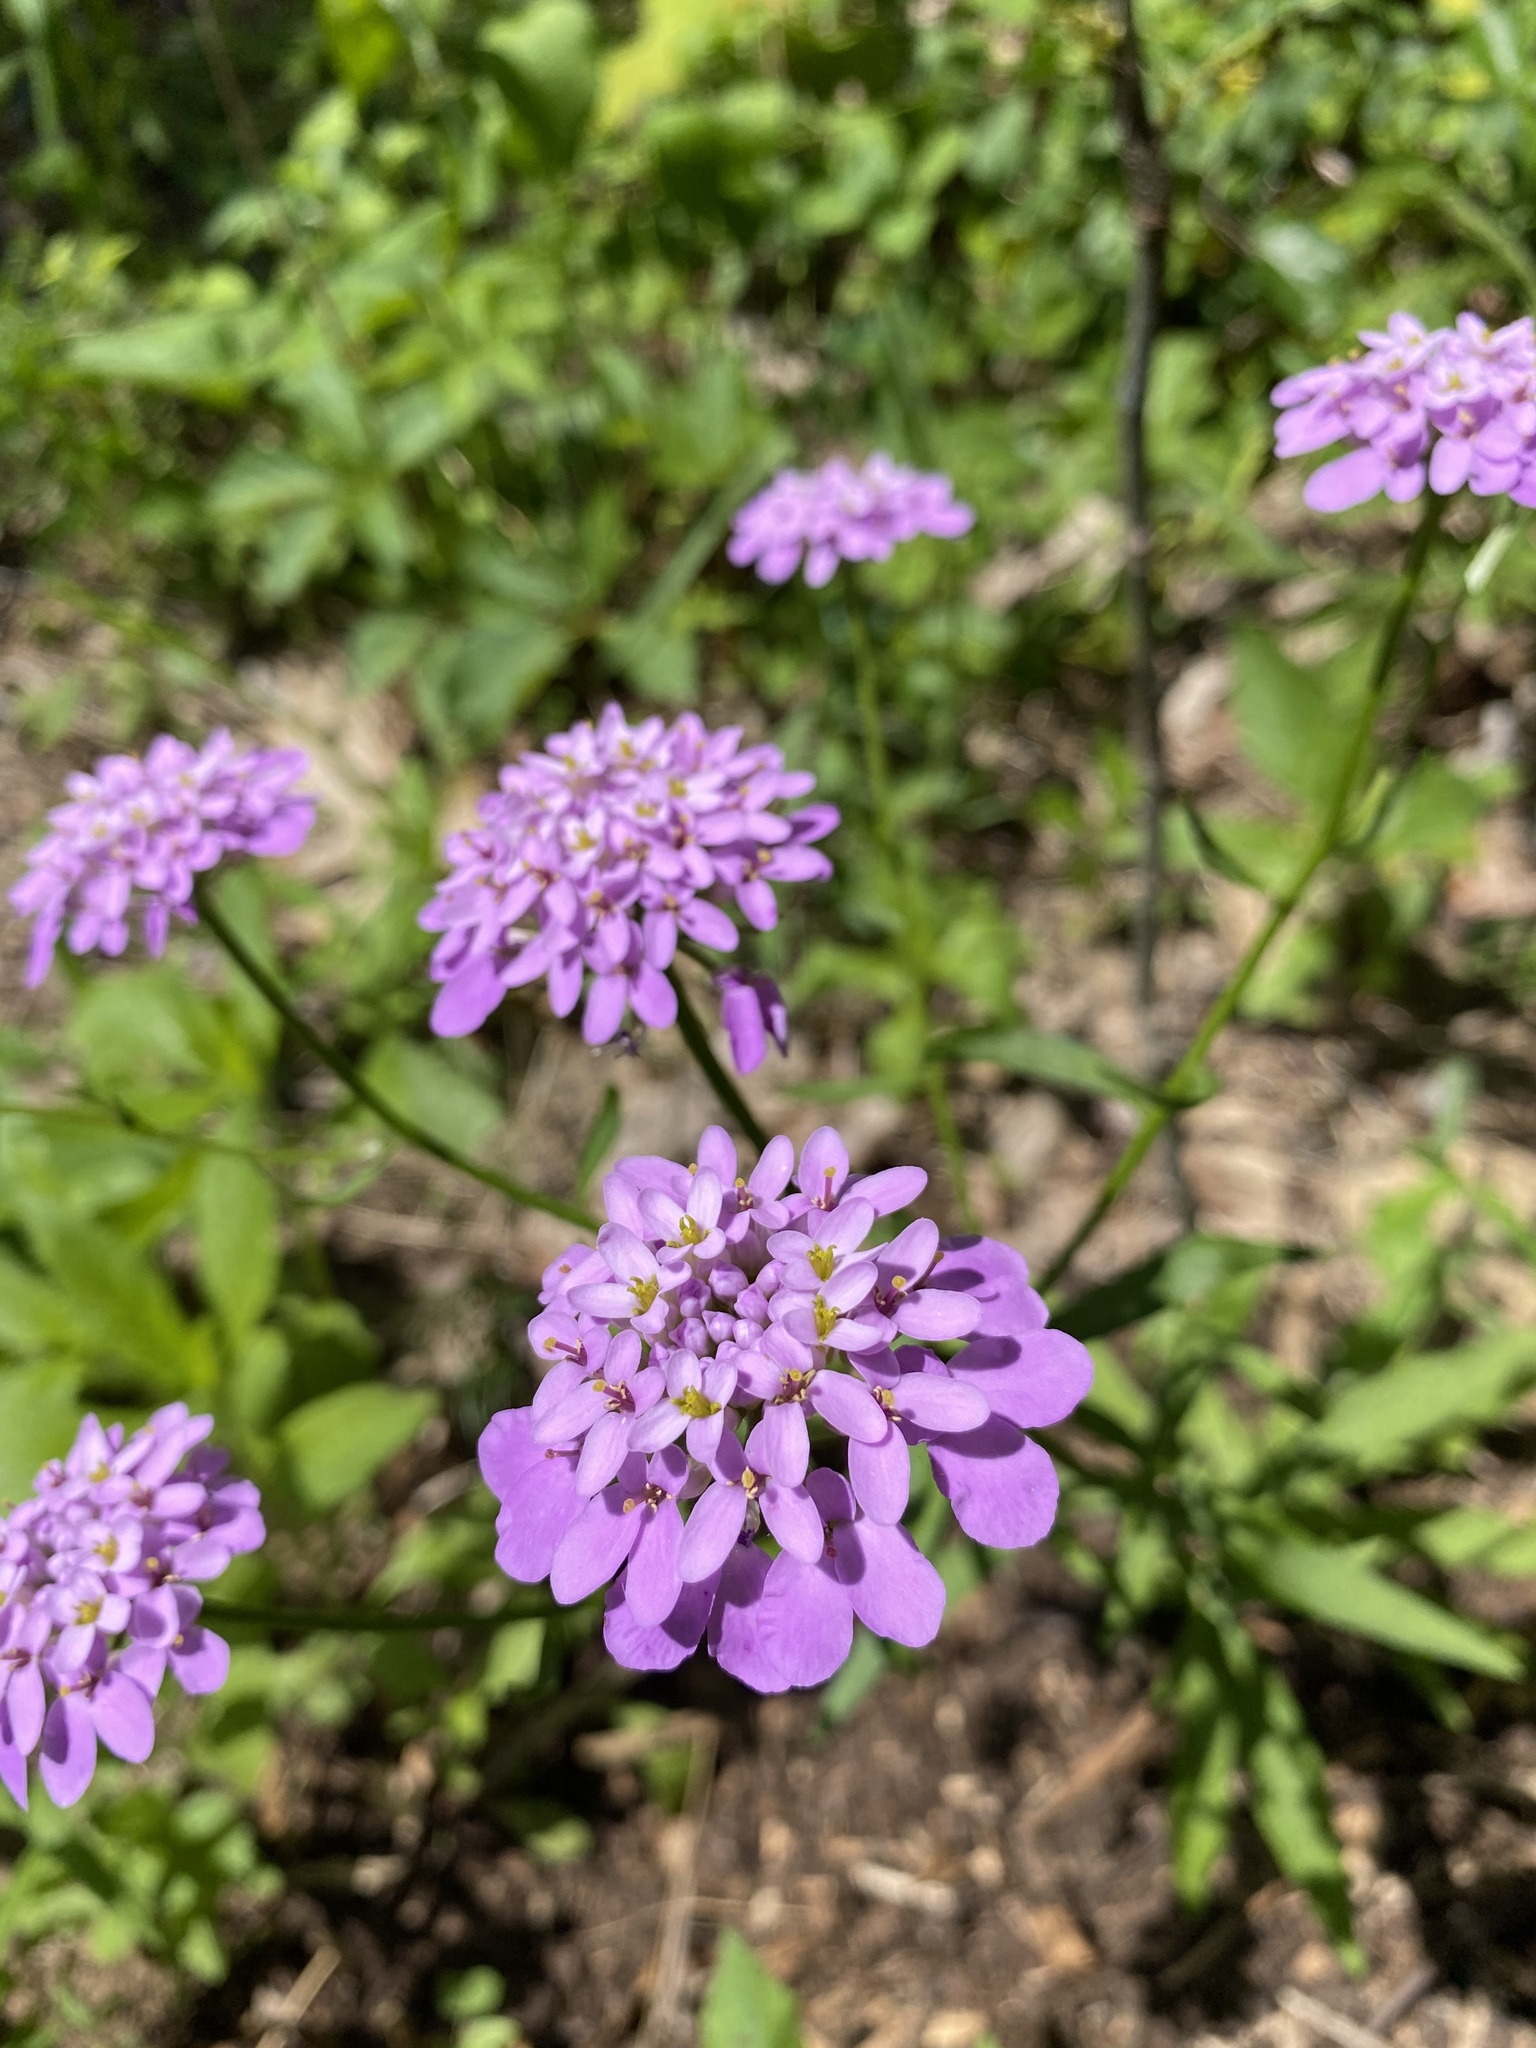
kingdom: Plantae
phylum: Tracheophyta
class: Magnoliopsida
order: Brassicales
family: Brassicaceae
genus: Iberis
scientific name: Iberis umbellata
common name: Globe candytuft
